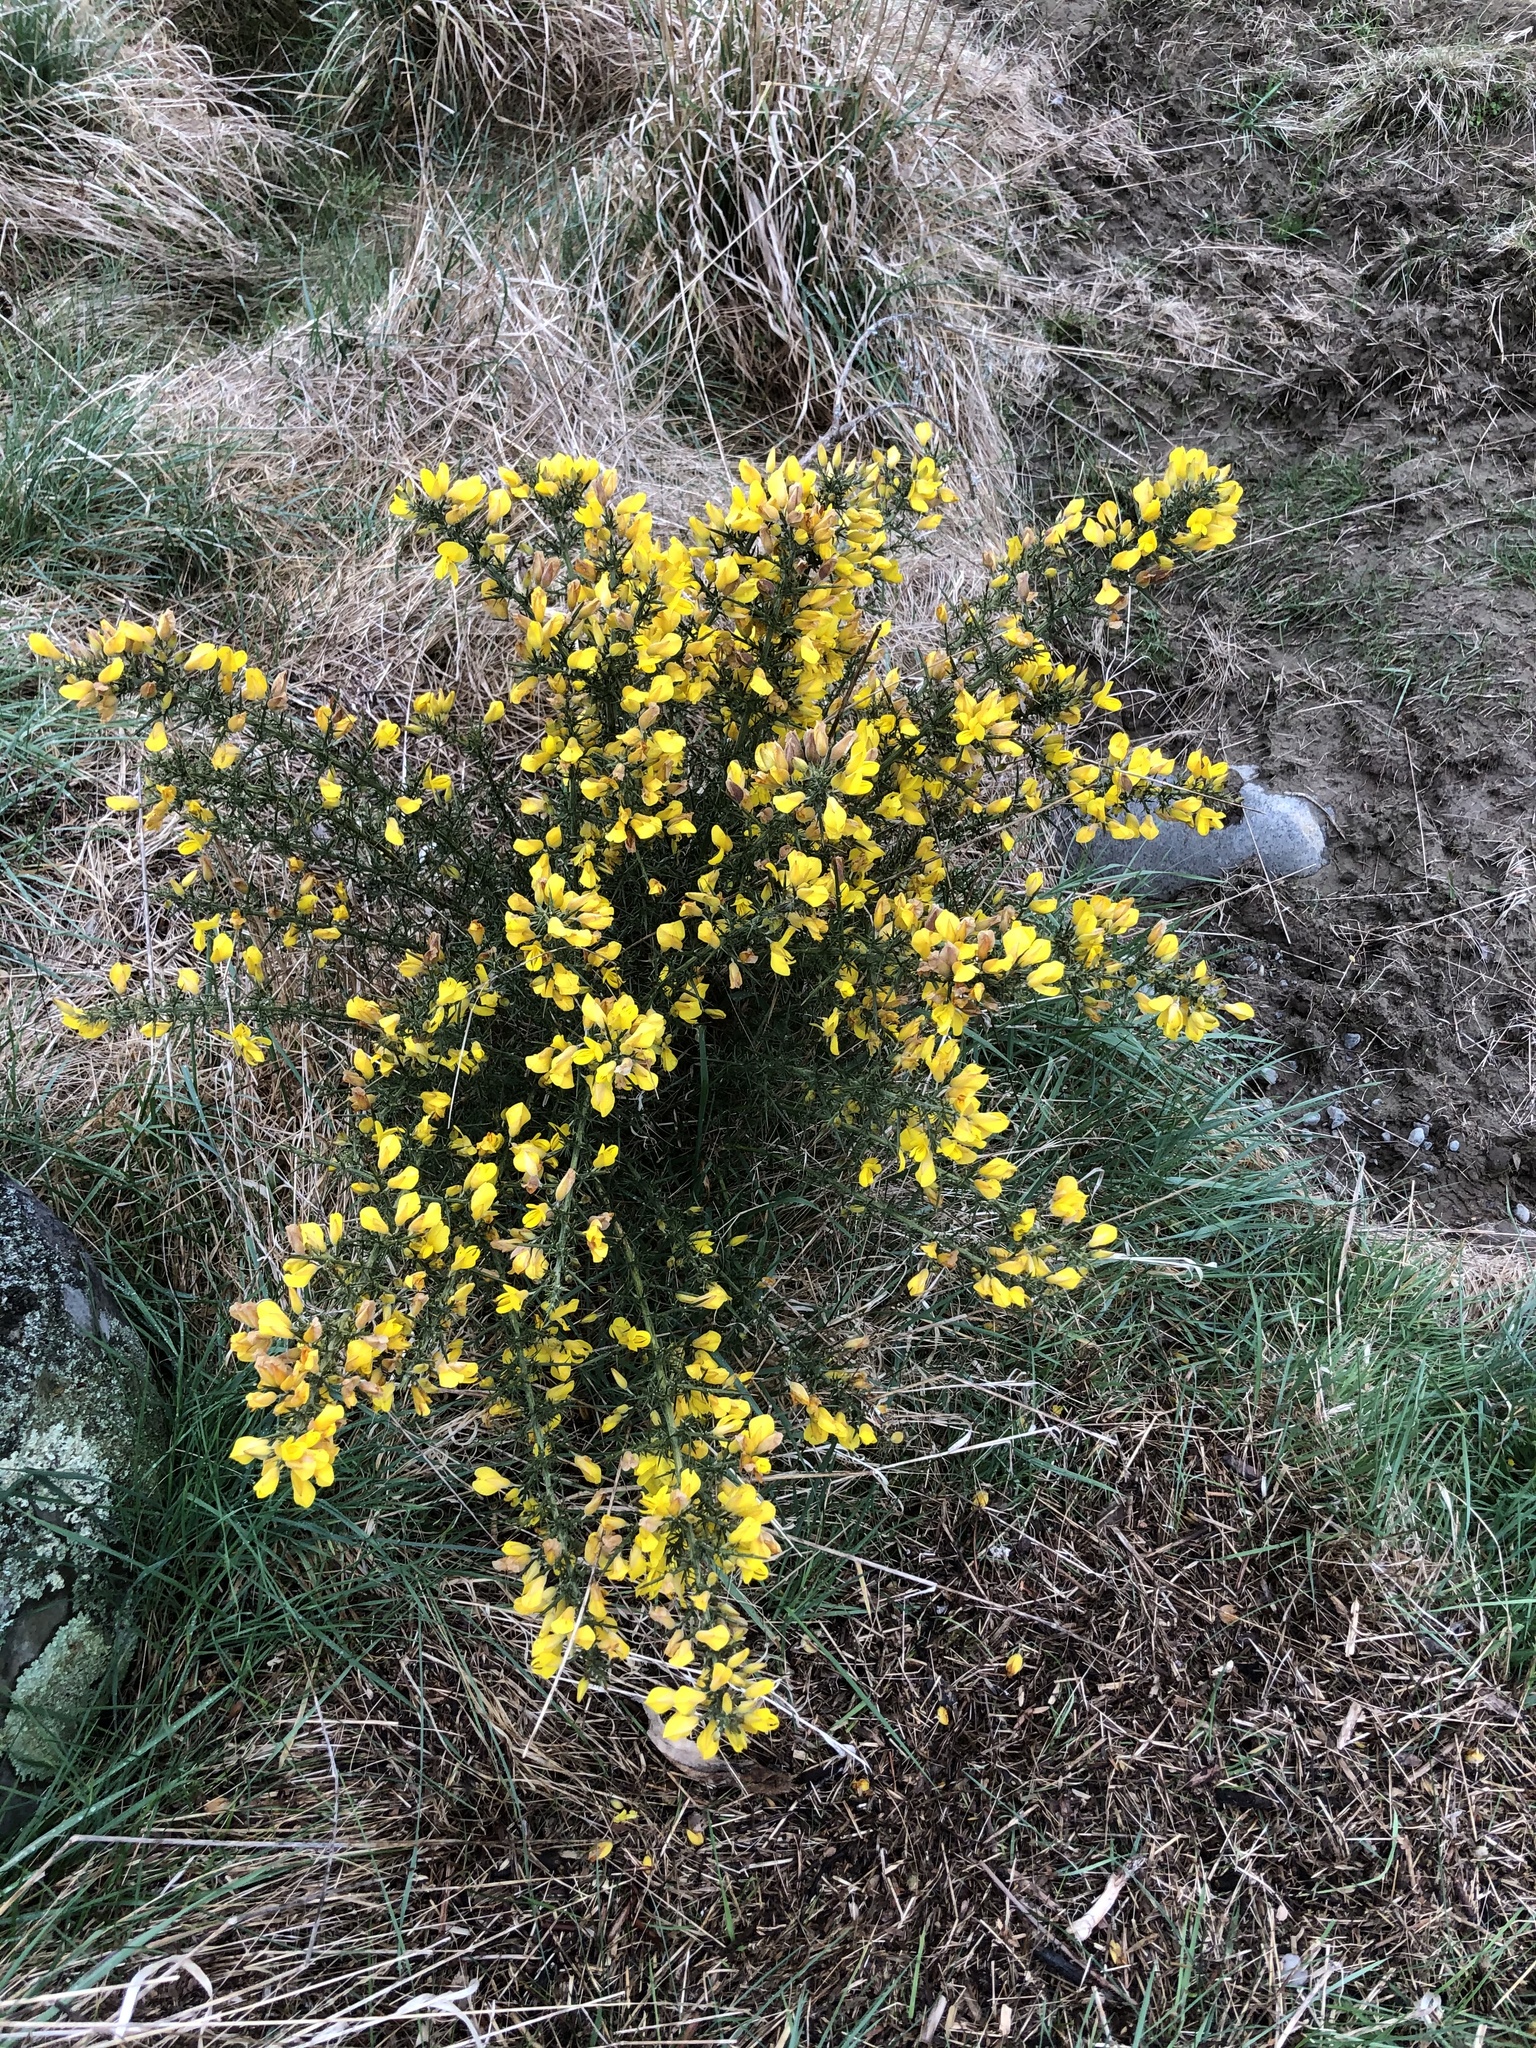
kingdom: Plantae
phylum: Tracheophyta
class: Magnoliopsida
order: Fabales
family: Fabaceae
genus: Ulex
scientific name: Ulex europaeus
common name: Common gorse
